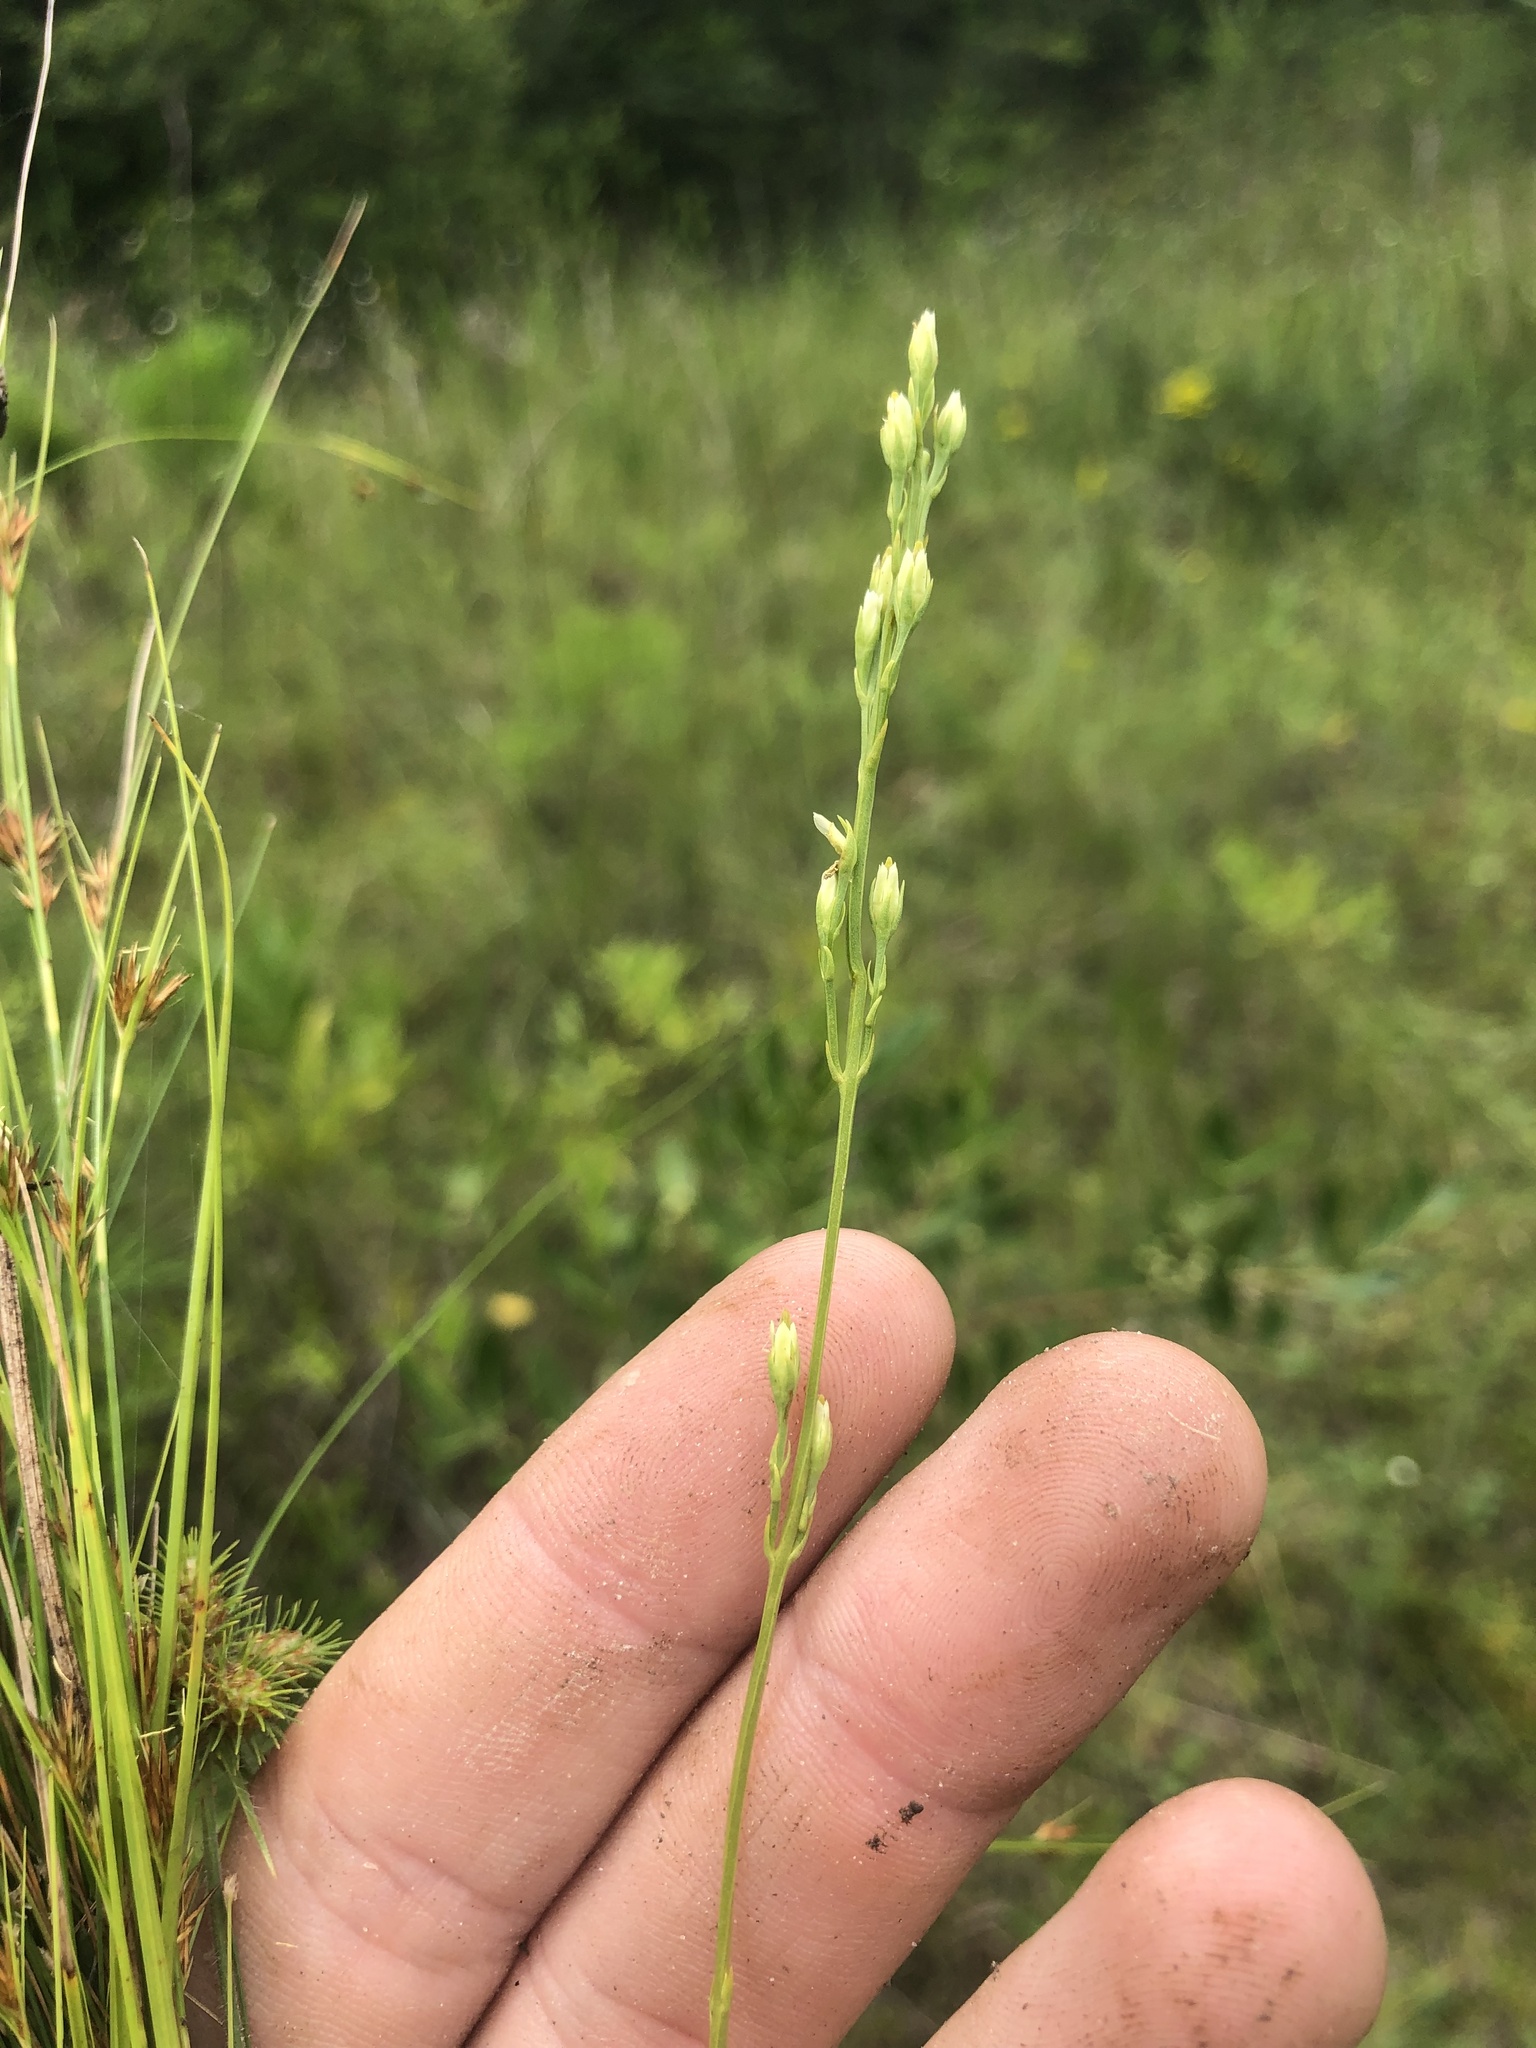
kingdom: Plantae
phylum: Tracheophyta
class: Magnoliopsida
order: Gentianales
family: Gentianaceae
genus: Bartonia
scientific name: Bartonia virginica
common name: Yellow bartonia
